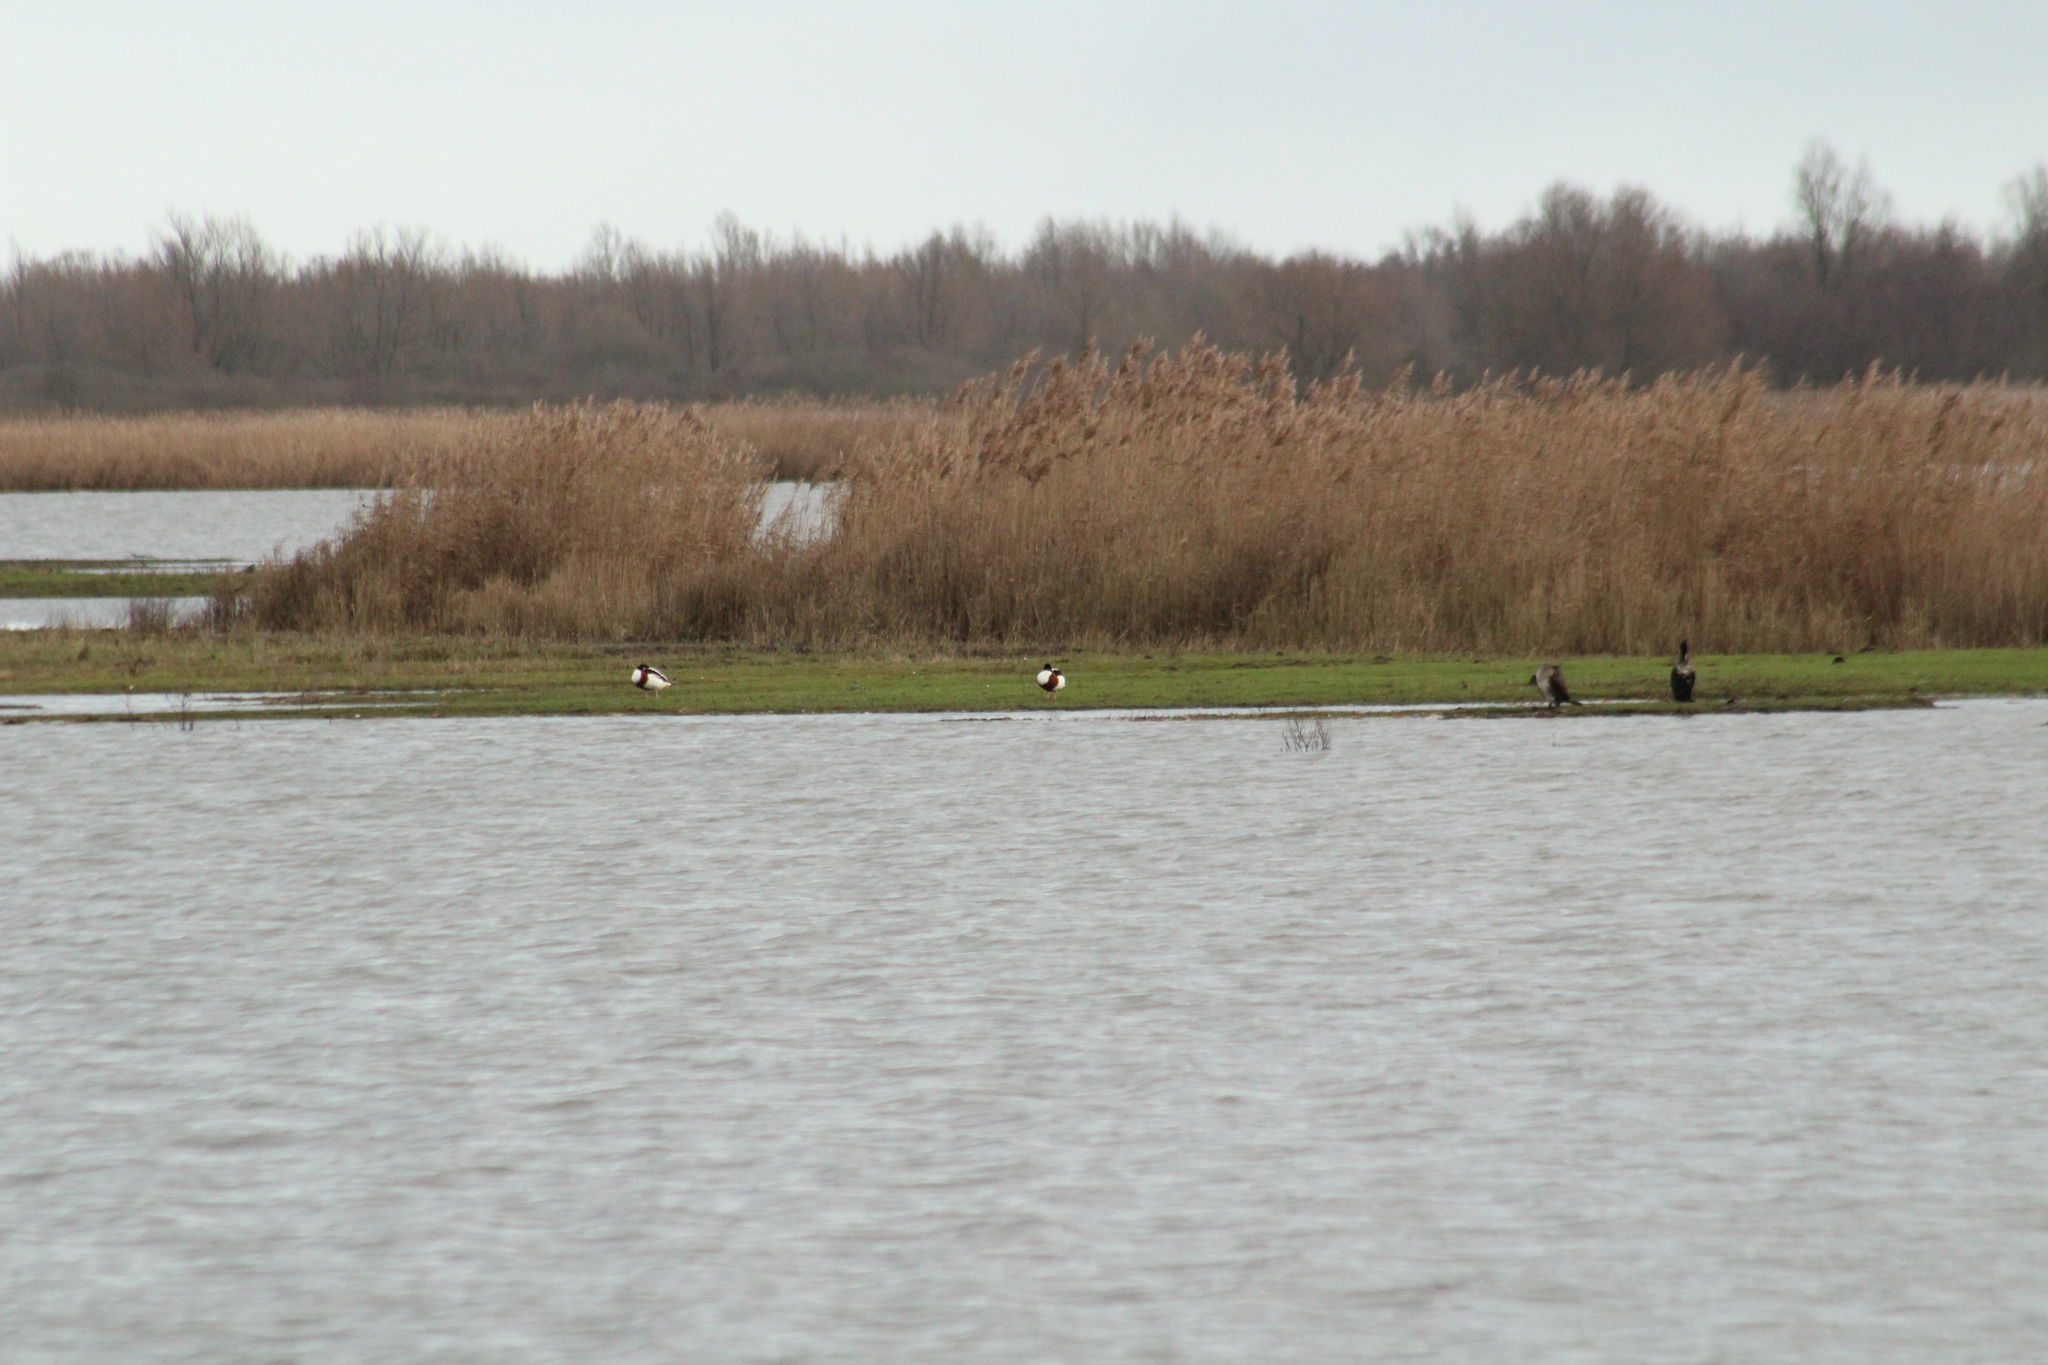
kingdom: Animalia
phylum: Chordata
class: Aves
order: Anseriformes
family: Anatidae
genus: Tadorna
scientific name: Tadorna tadorna
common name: Common shelduck
